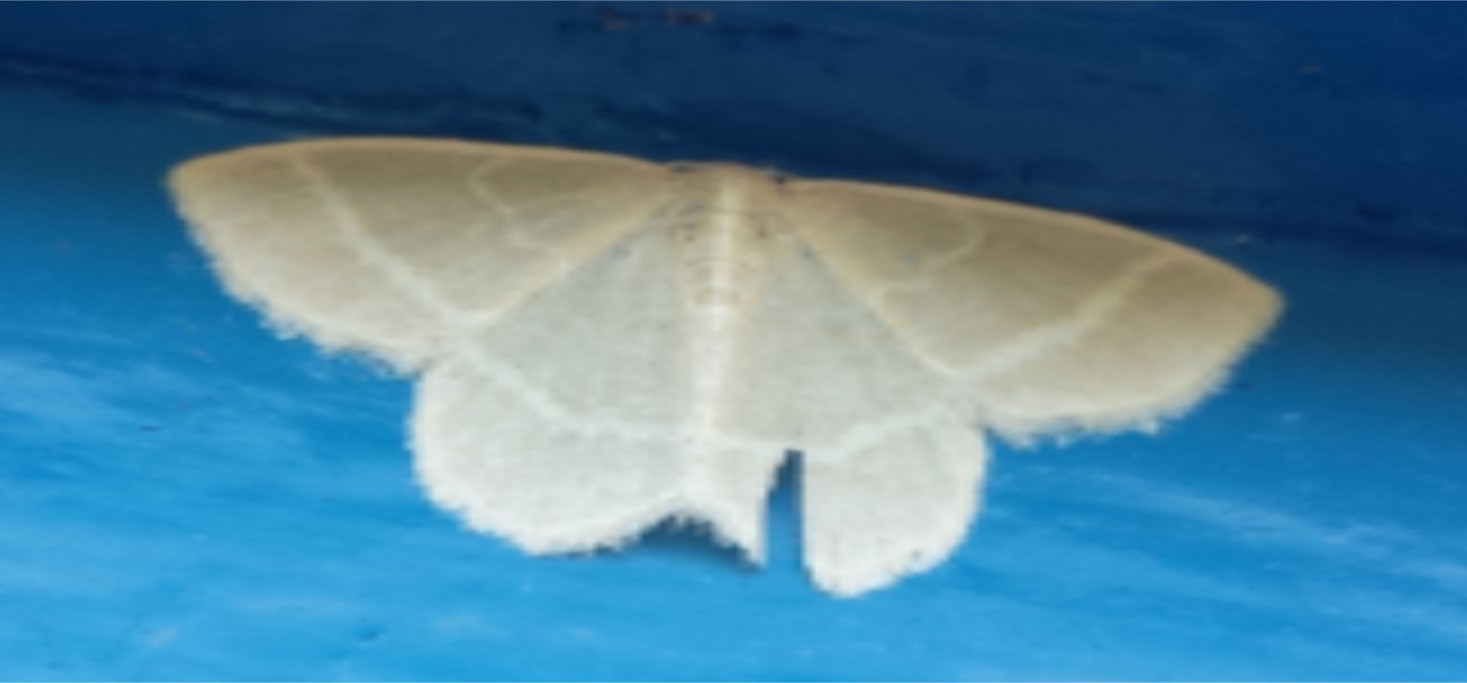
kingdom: Animalia
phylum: Arthropoda
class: Insecta
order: Lepidoptera
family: Geometridae
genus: Chlorochlamys
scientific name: Chlorochlamys chloroleucaria
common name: Blackberry looper
